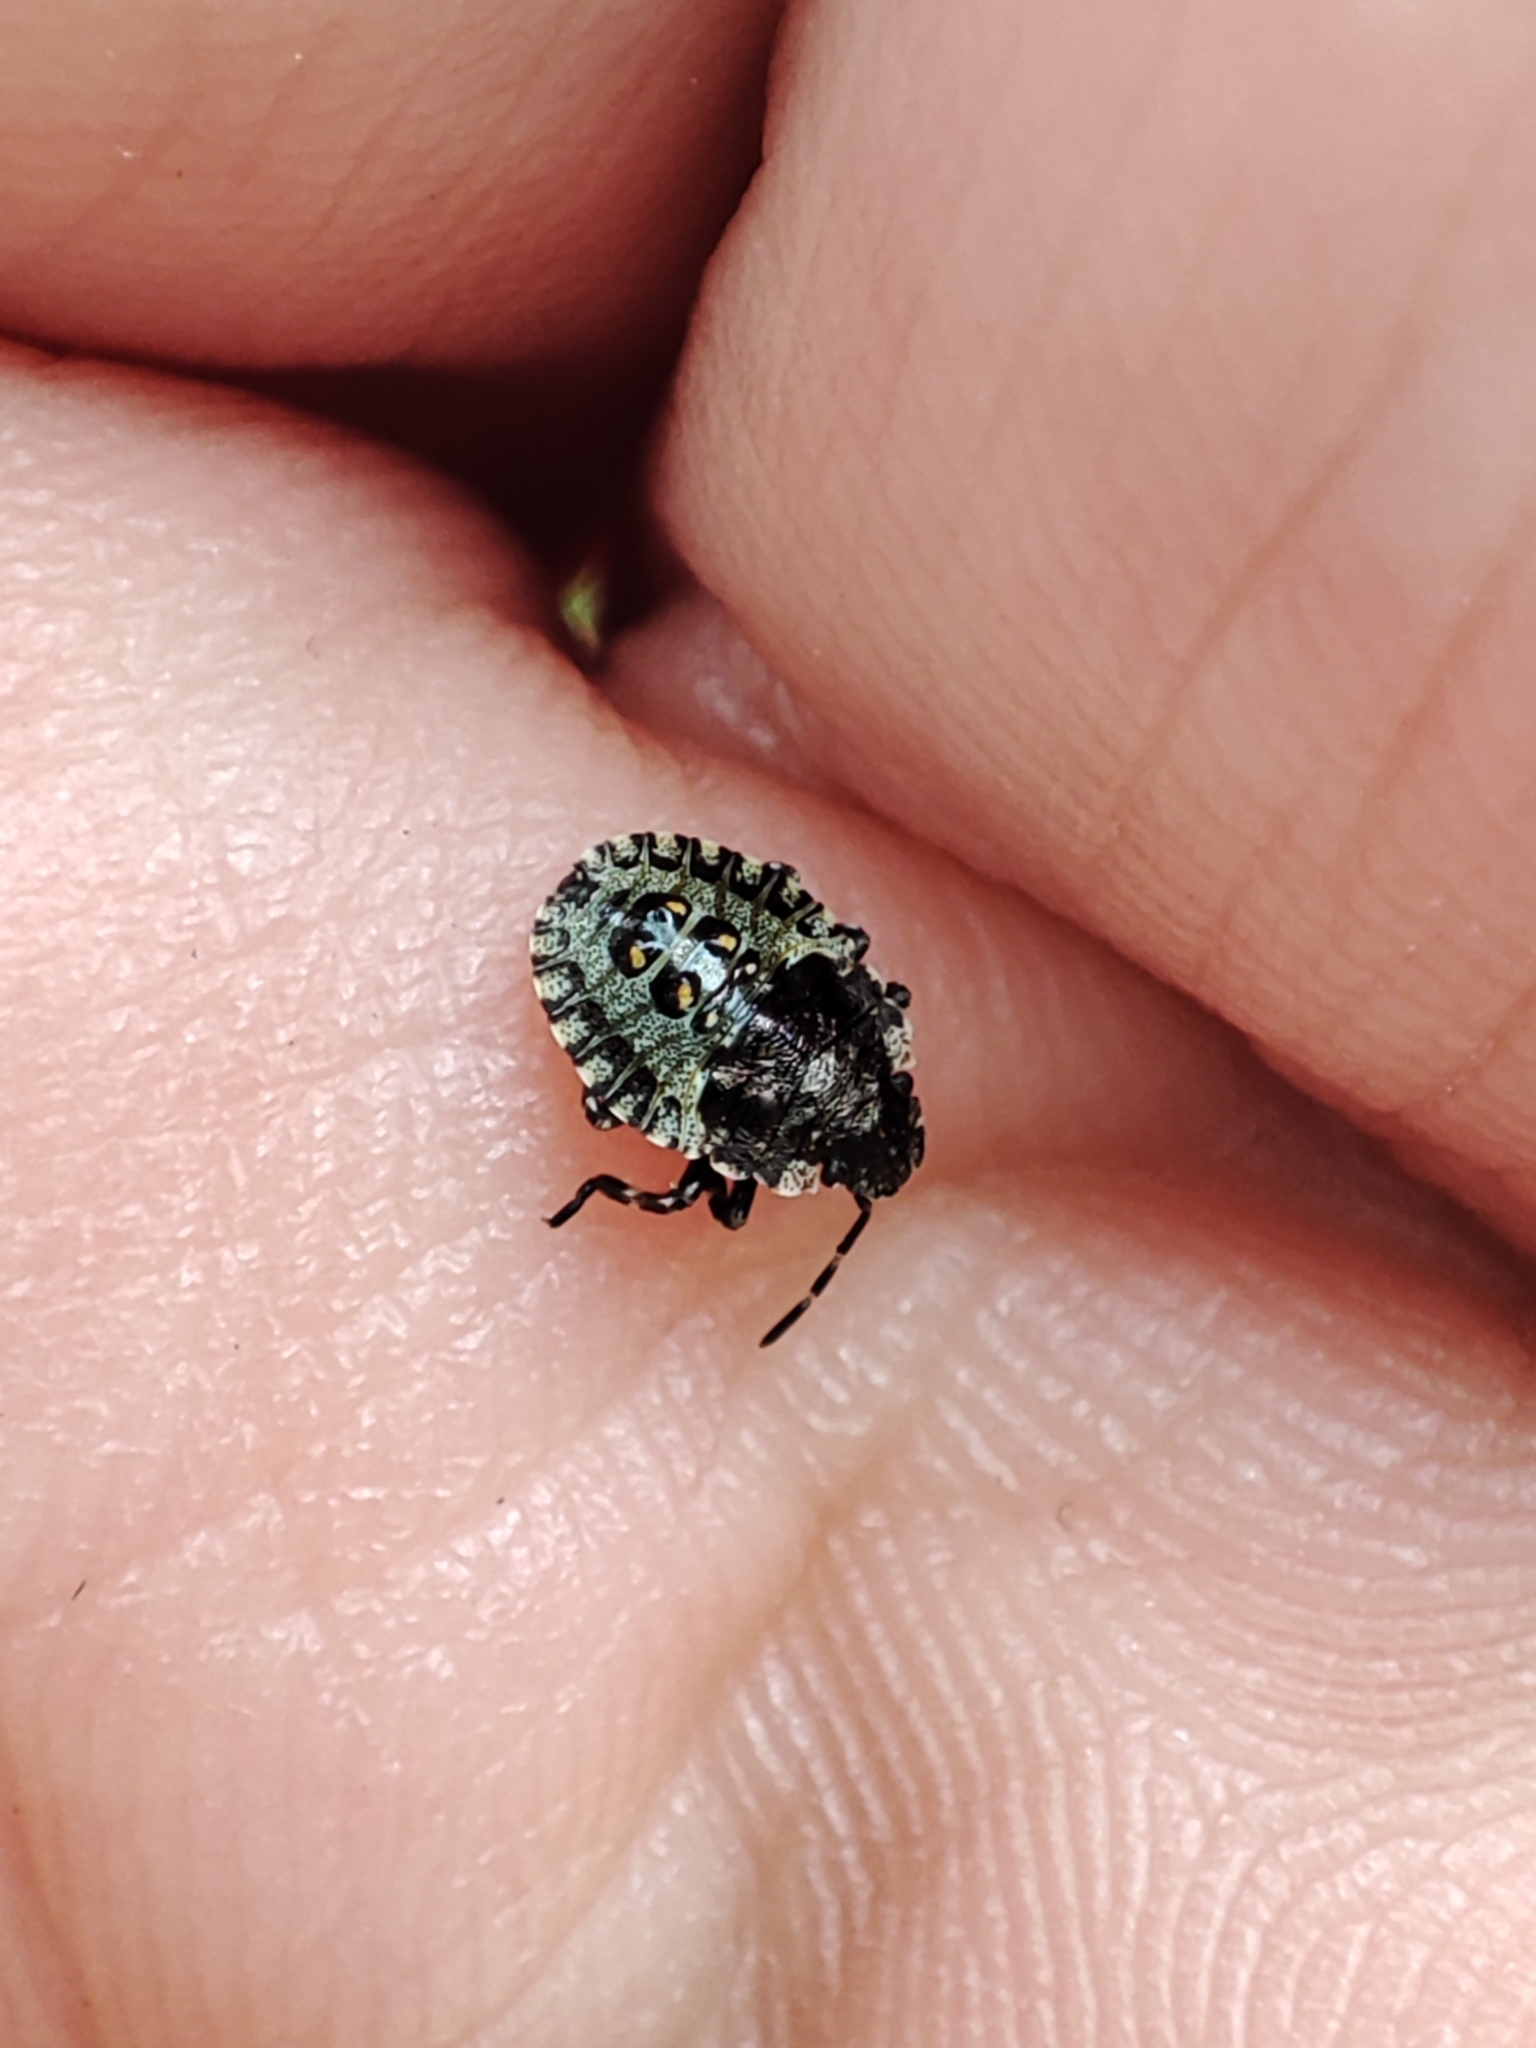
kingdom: Animalia
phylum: Arthropoda
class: Insecta
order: Hemiptera
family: Pentatomidae
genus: Pentatoma
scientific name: Pentatoma rufipes
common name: Forest bug
